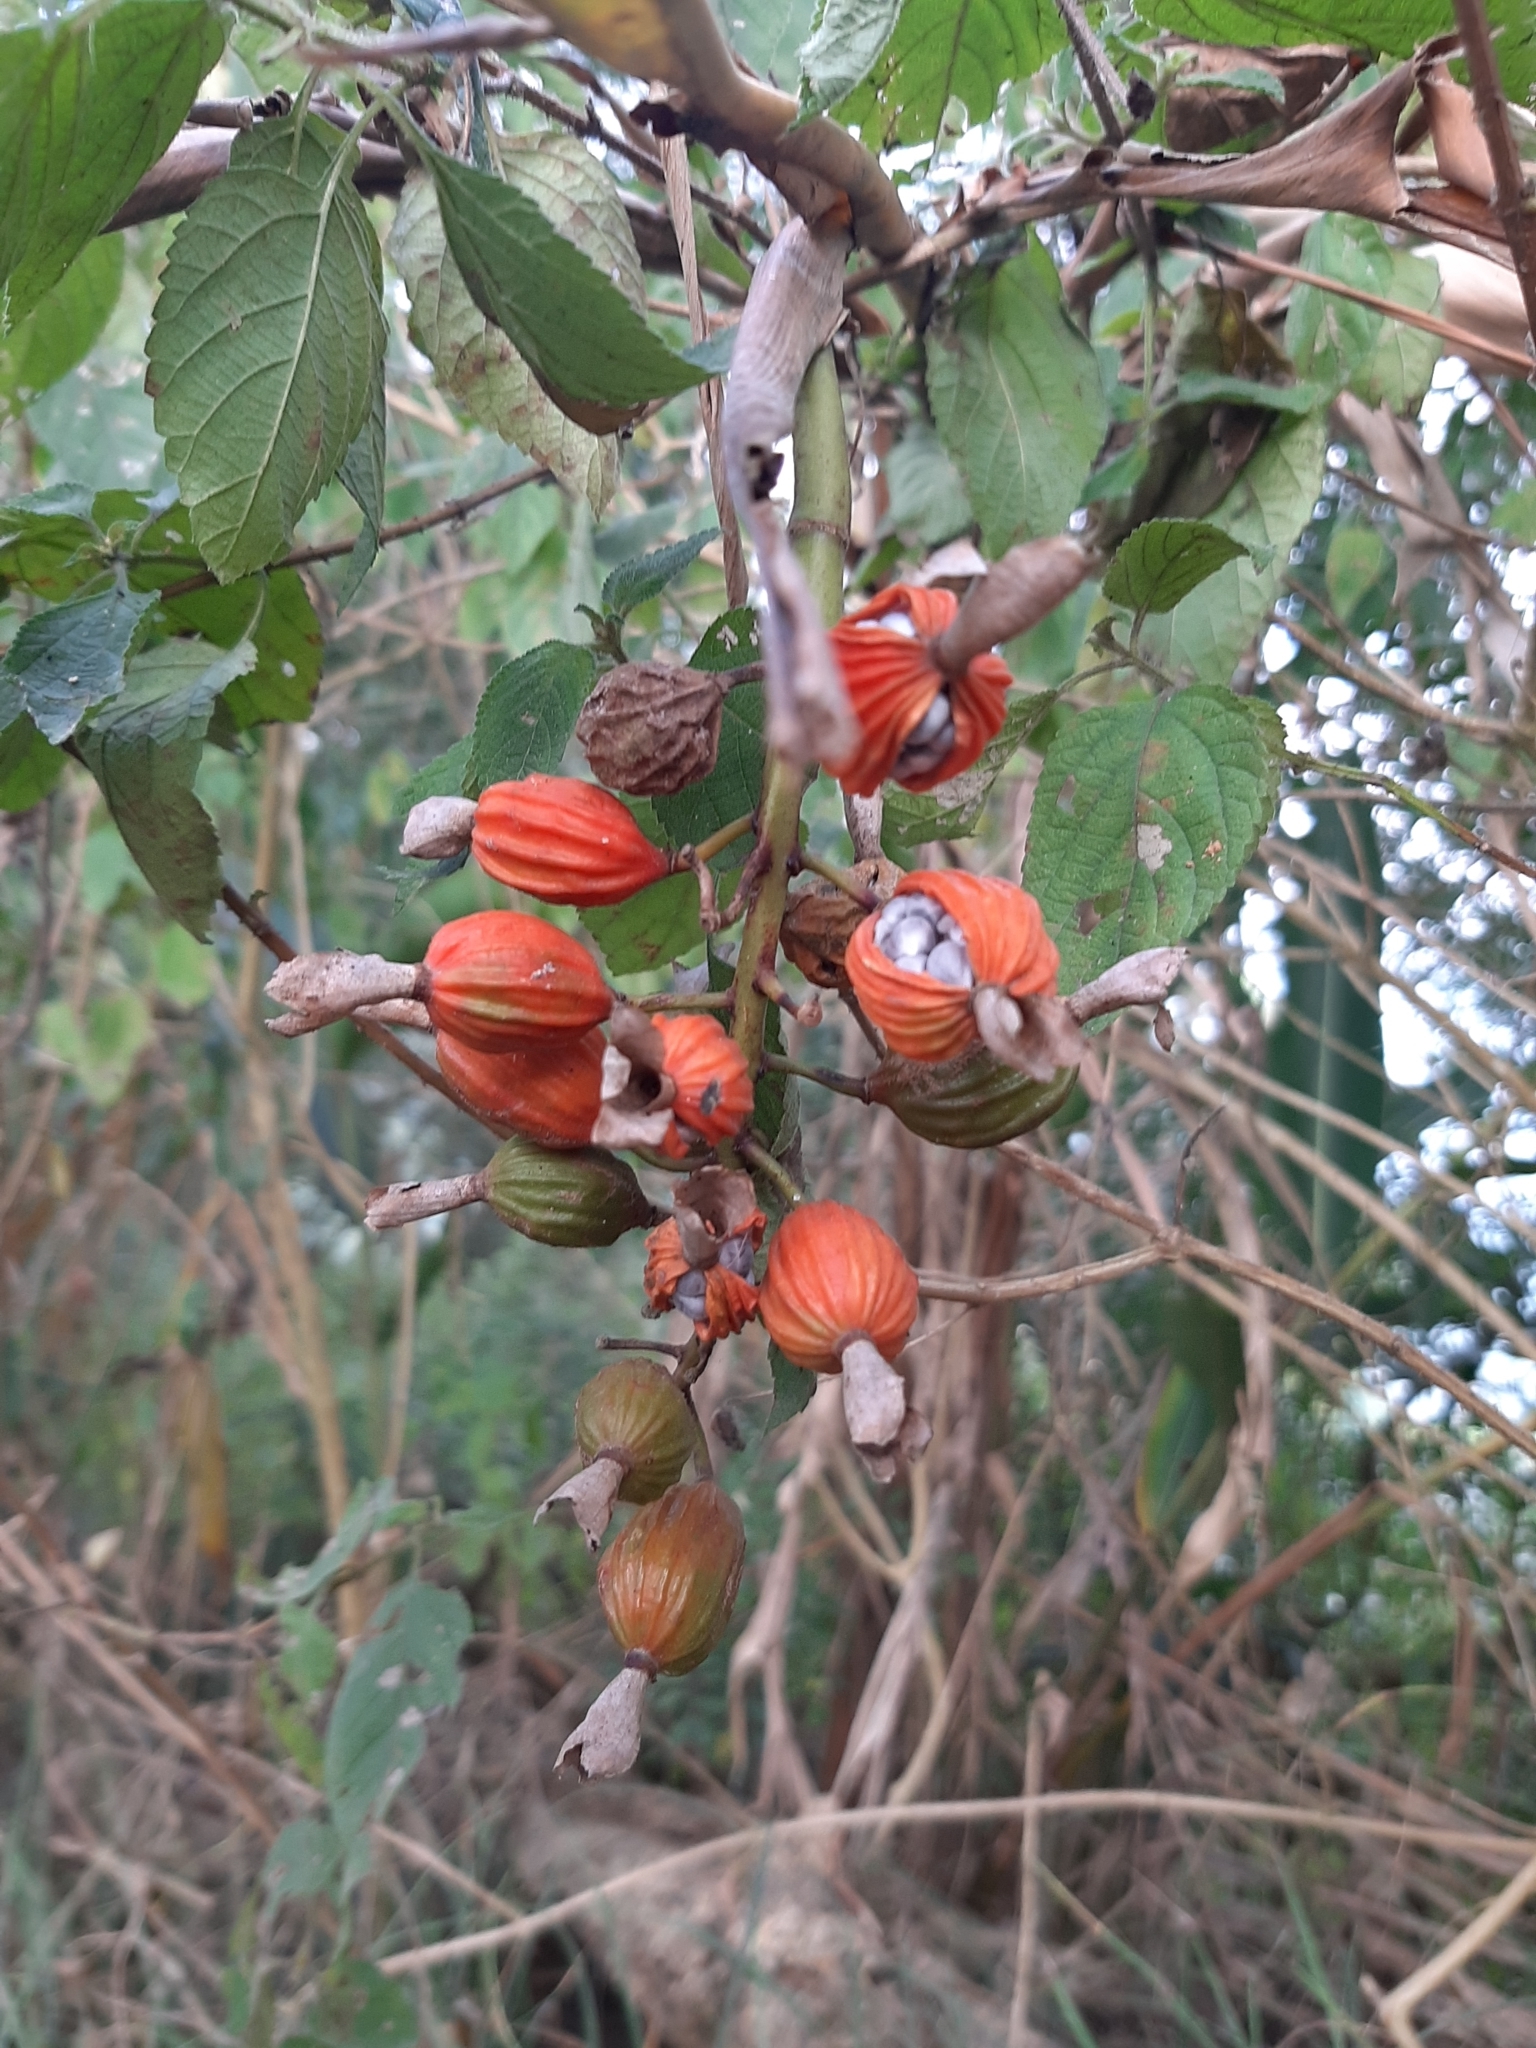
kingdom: Plantae
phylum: Tracheophyta
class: Liliopsida
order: Zingiberales
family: Zingiberaceae
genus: Alpinia
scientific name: Alpinia zerumbet
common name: Shellplant
